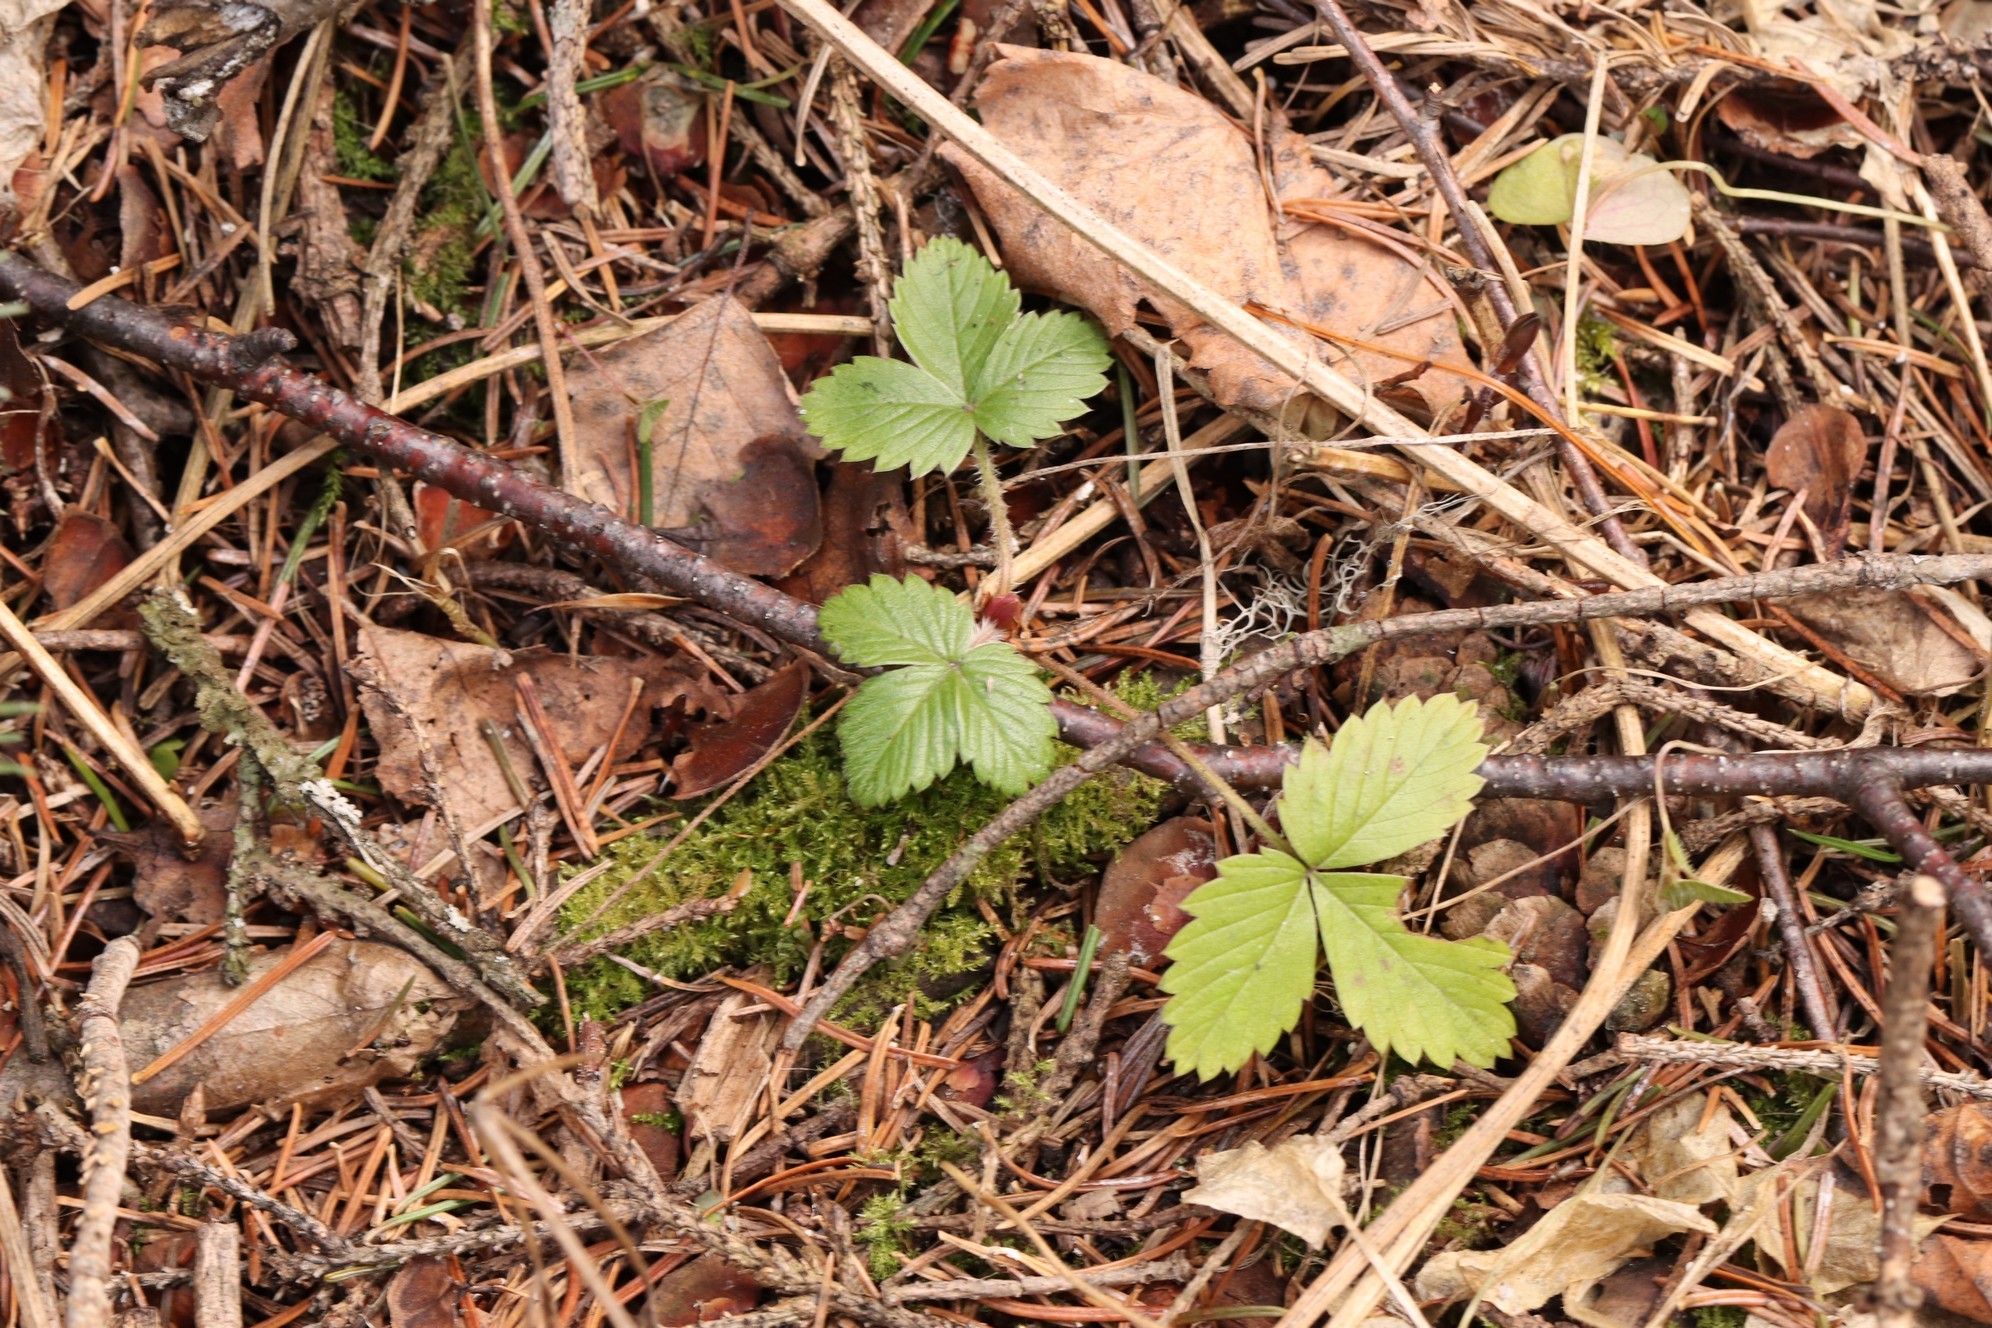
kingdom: Plantae
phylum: Tracheophyta
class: Magnoliopsida
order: Rosales
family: Rosaceae
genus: Fragaria
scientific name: Fragaria vesca
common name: Wild strawberry
